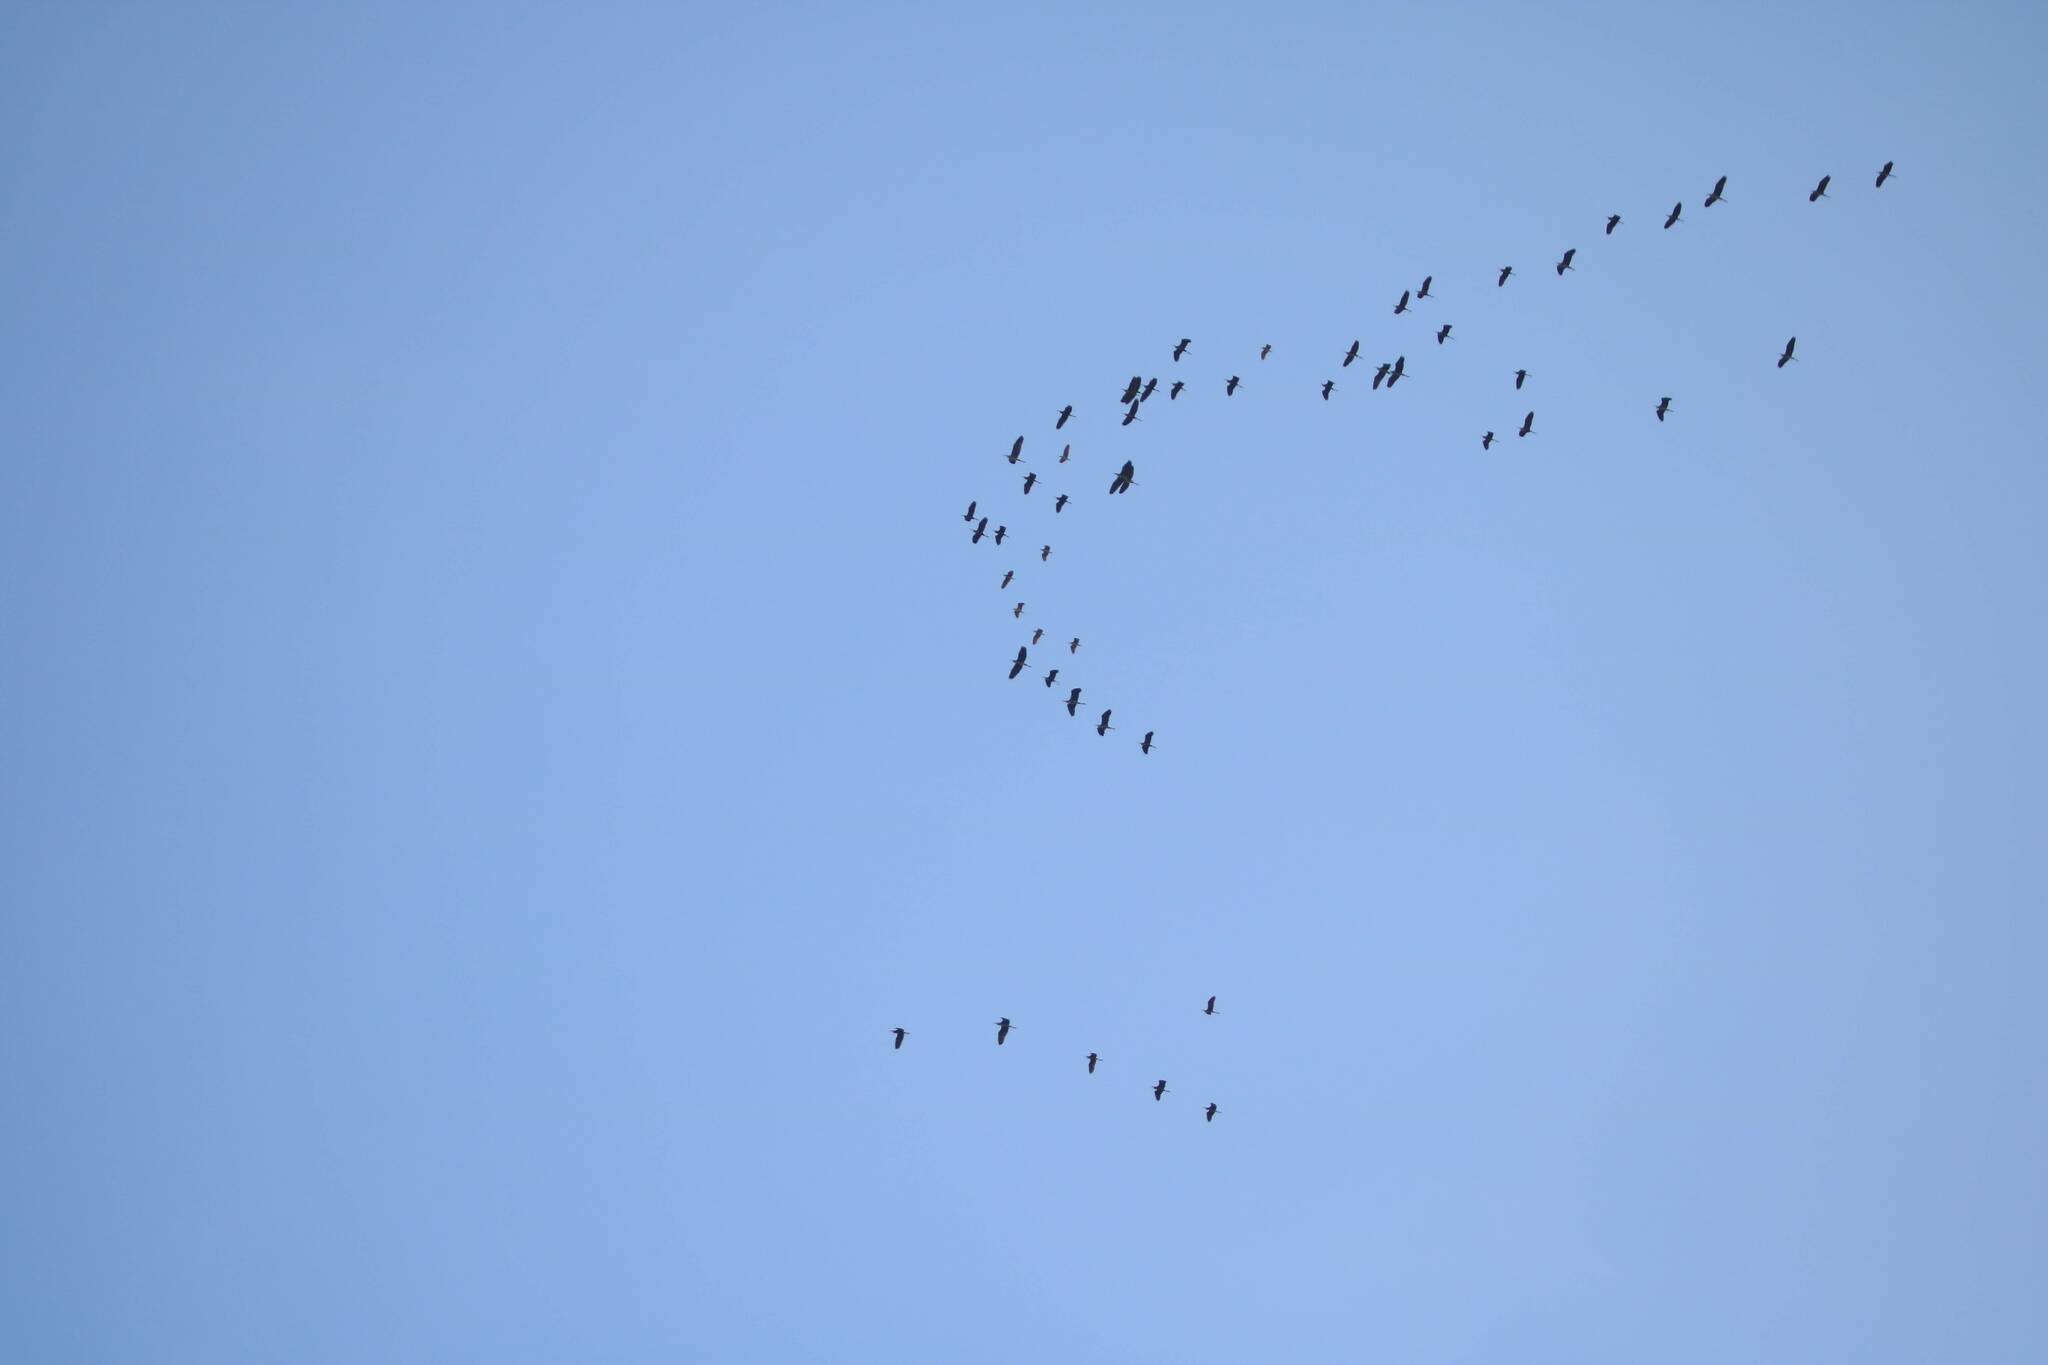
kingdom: Animalia
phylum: Chordata
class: Aves
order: Pelecaniformes
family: Ardeidae
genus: Ardea
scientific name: Ardea cinerea
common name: Grey heron
